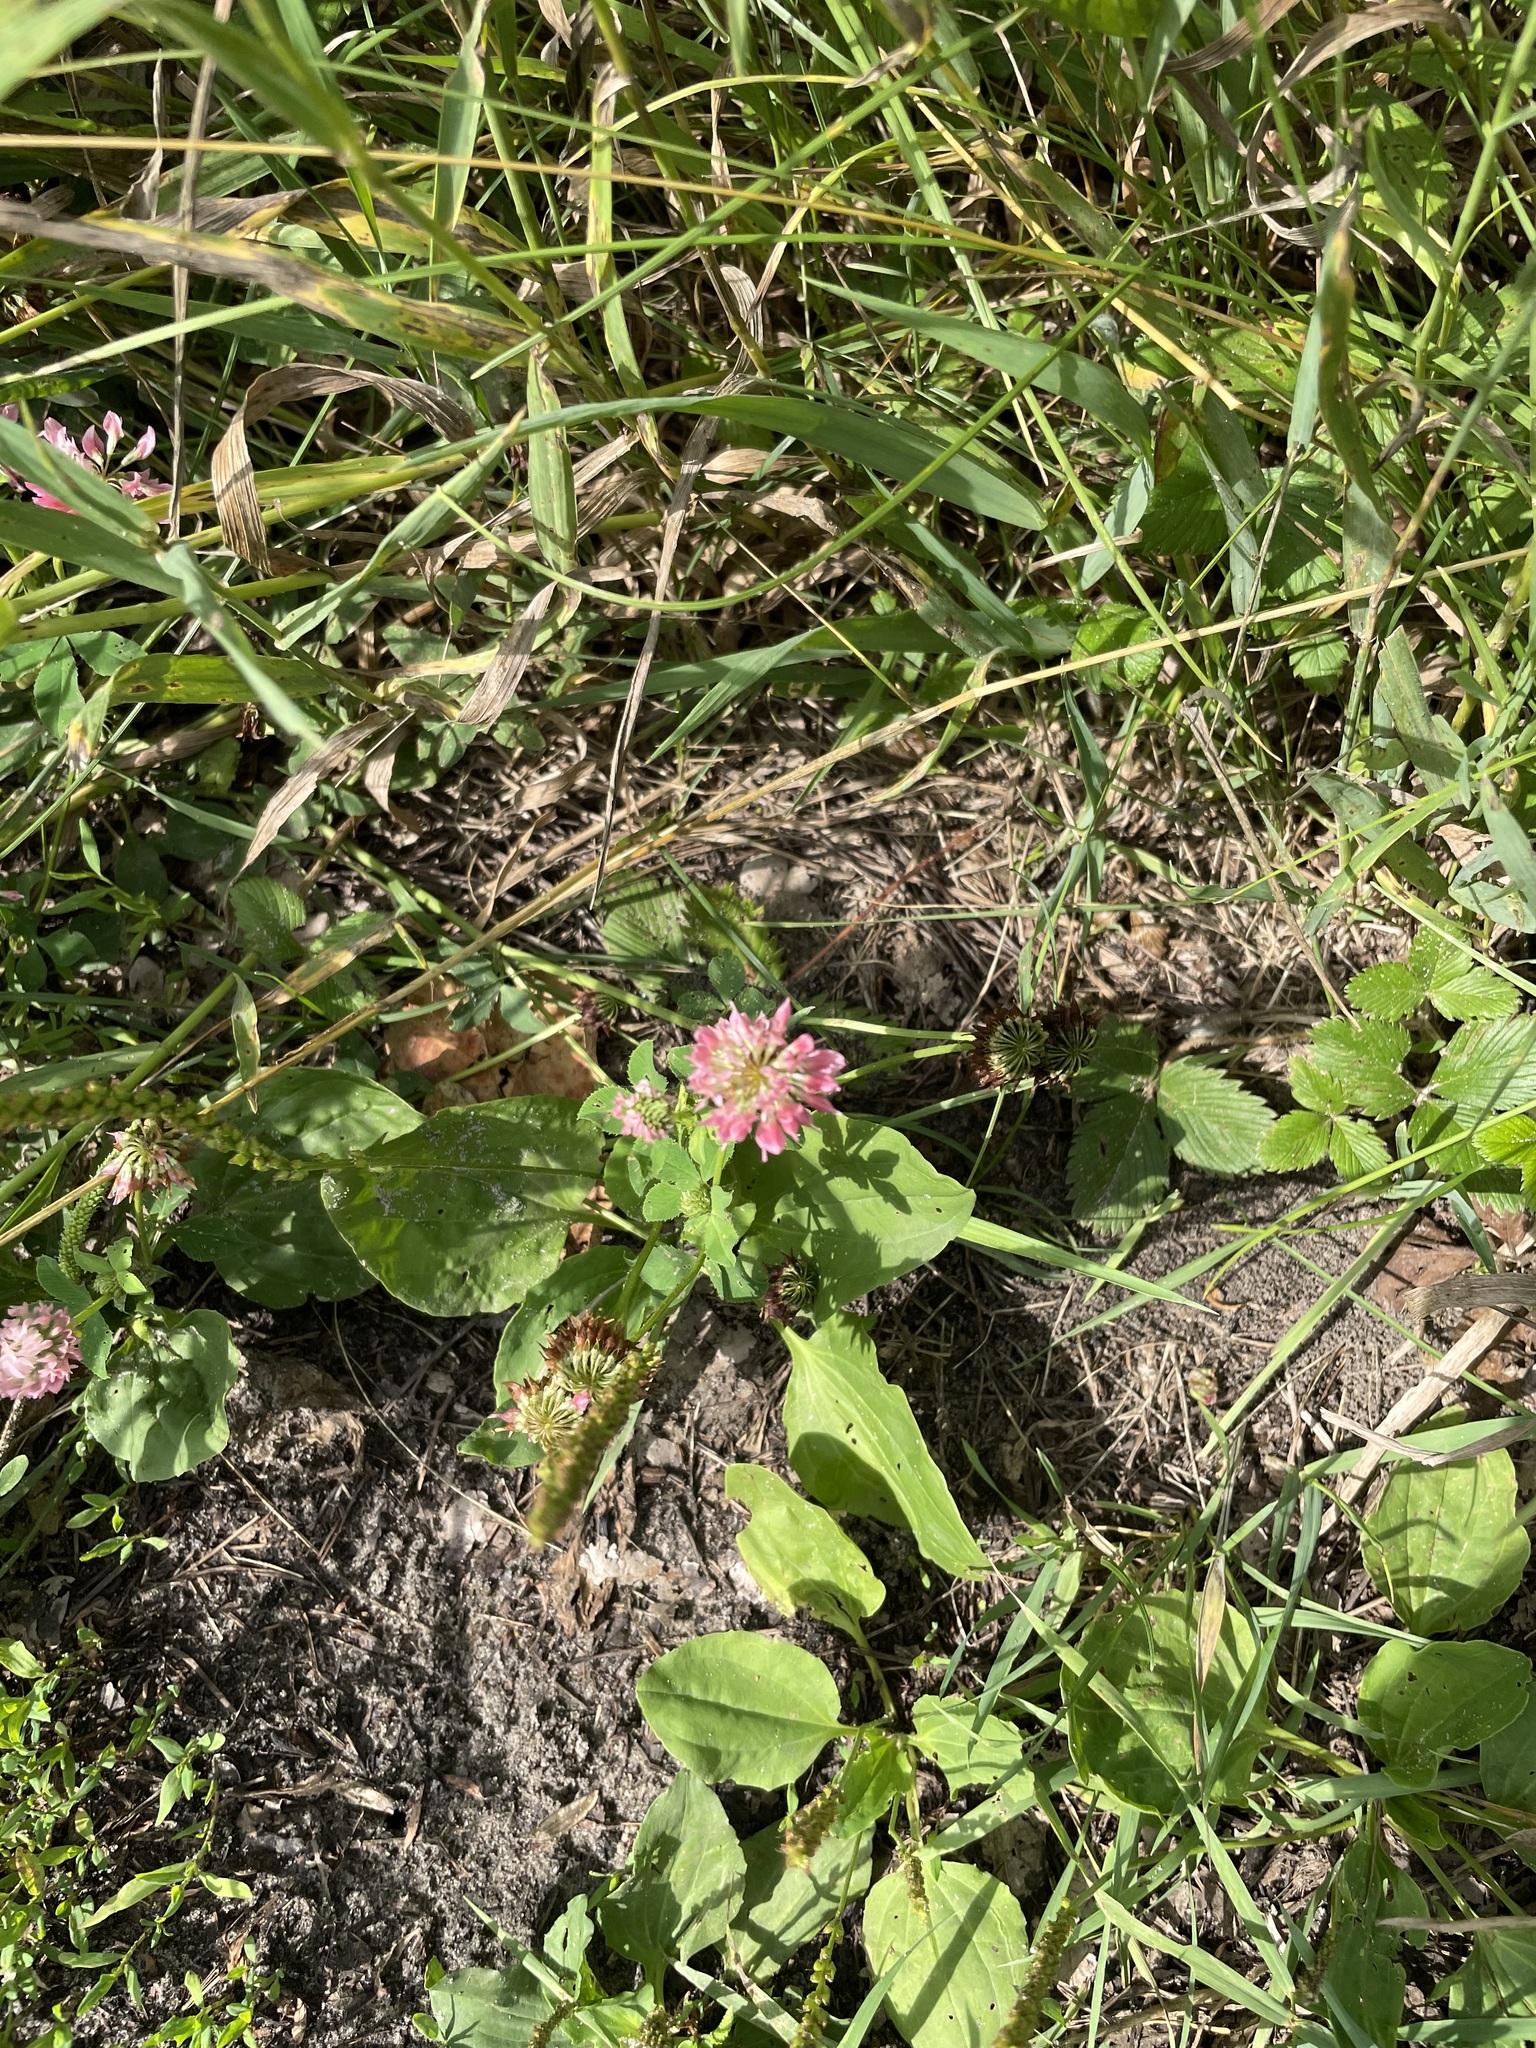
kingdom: Plantae
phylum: Tracheophyta
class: Magnoliopsida
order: Fabales
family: Fabaceae
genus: Trifolium
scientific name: Trifolium hybridum
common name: Alsike clover
